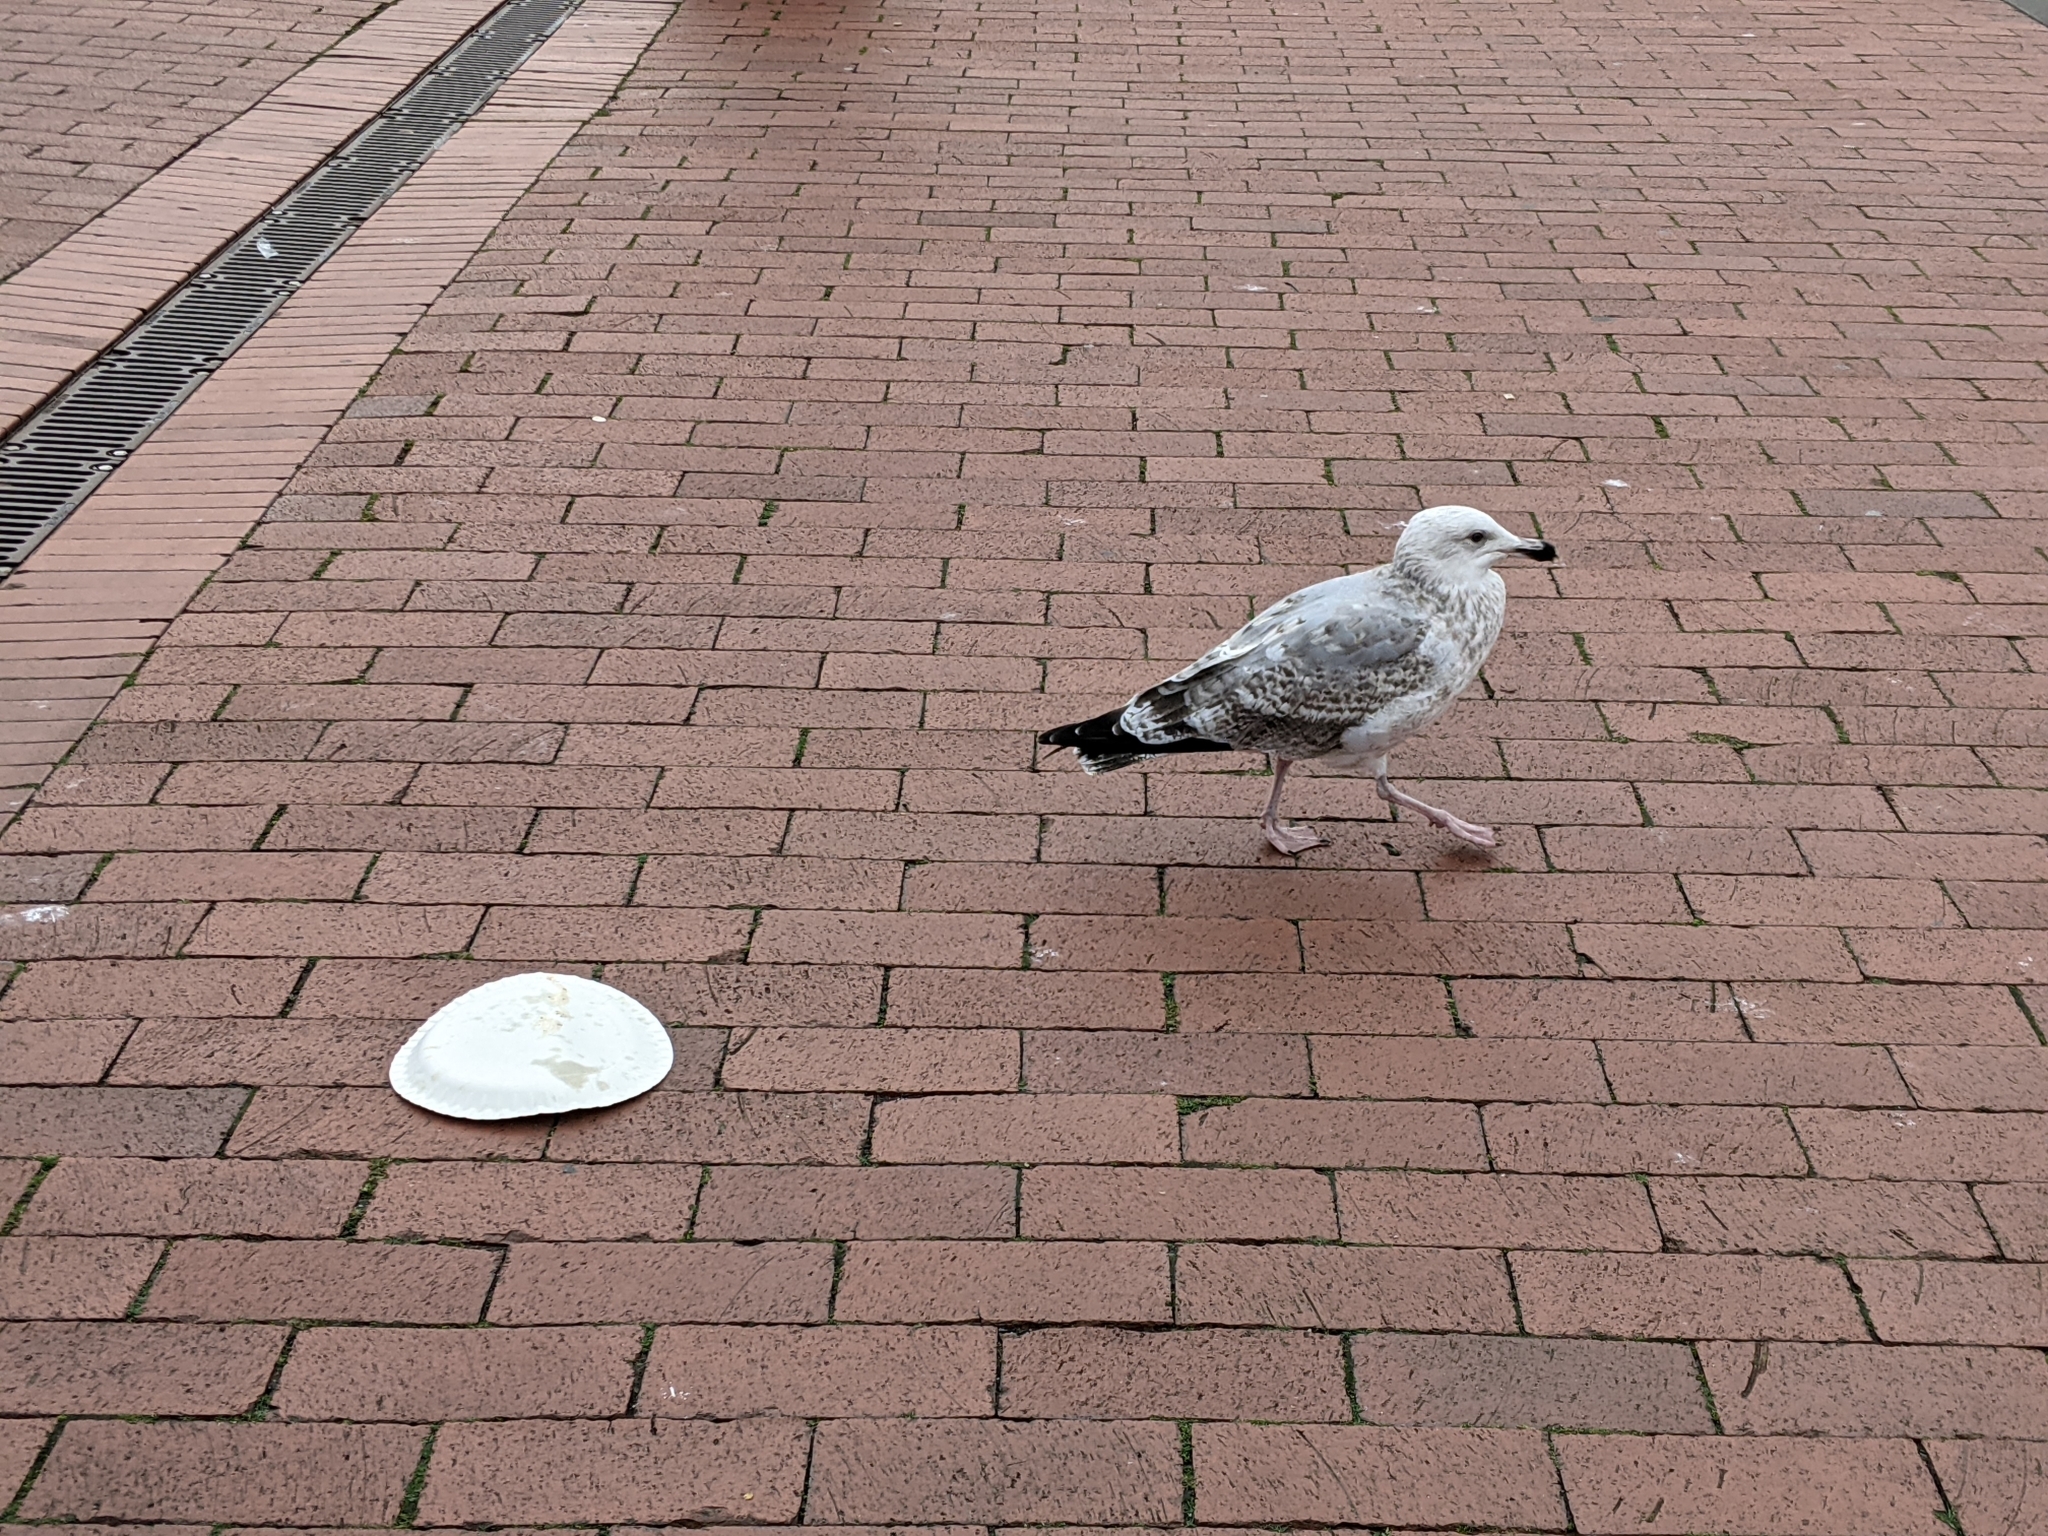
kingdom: Animalia
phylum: Chordata
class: Aves
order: Charadriiformes
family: Laridae
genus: Larus
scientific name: Larus argentatus
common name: Herring gull
